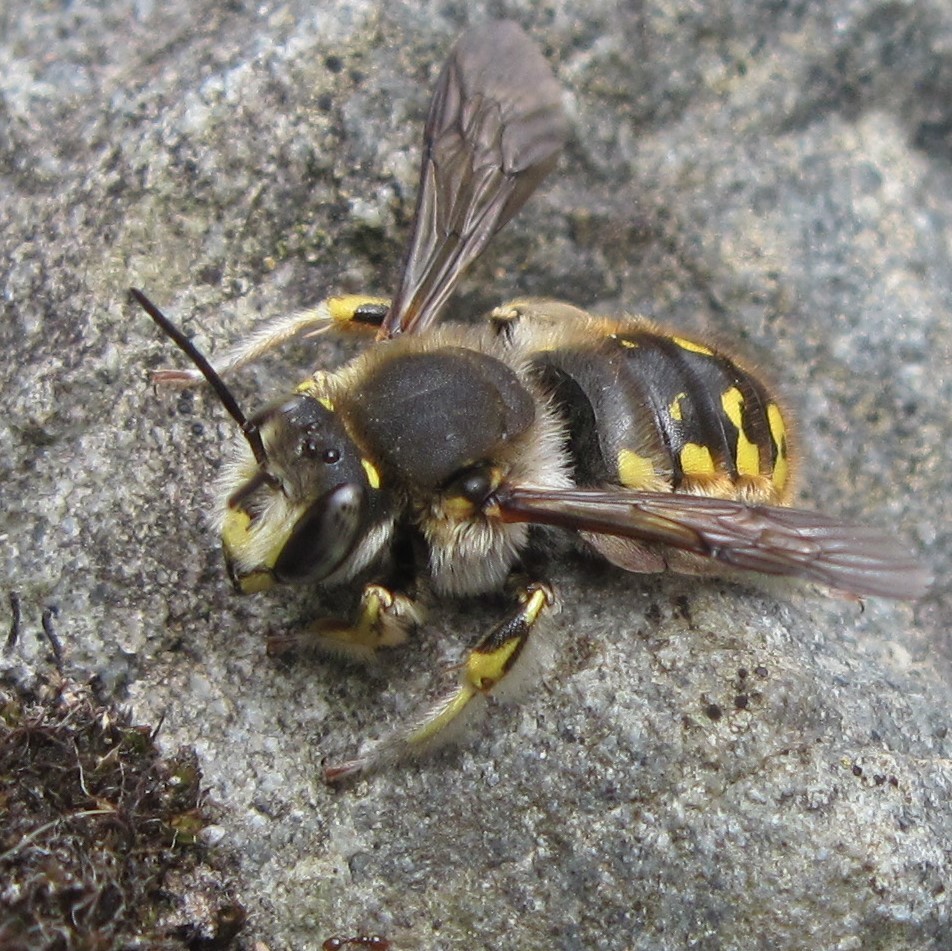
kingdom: Animalia
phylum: Arthropoda
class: Insecta
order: Hymenoptera
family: Megachilidae
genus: Anthidium
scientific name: Anthidium manicatum
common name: Wool carder bee
